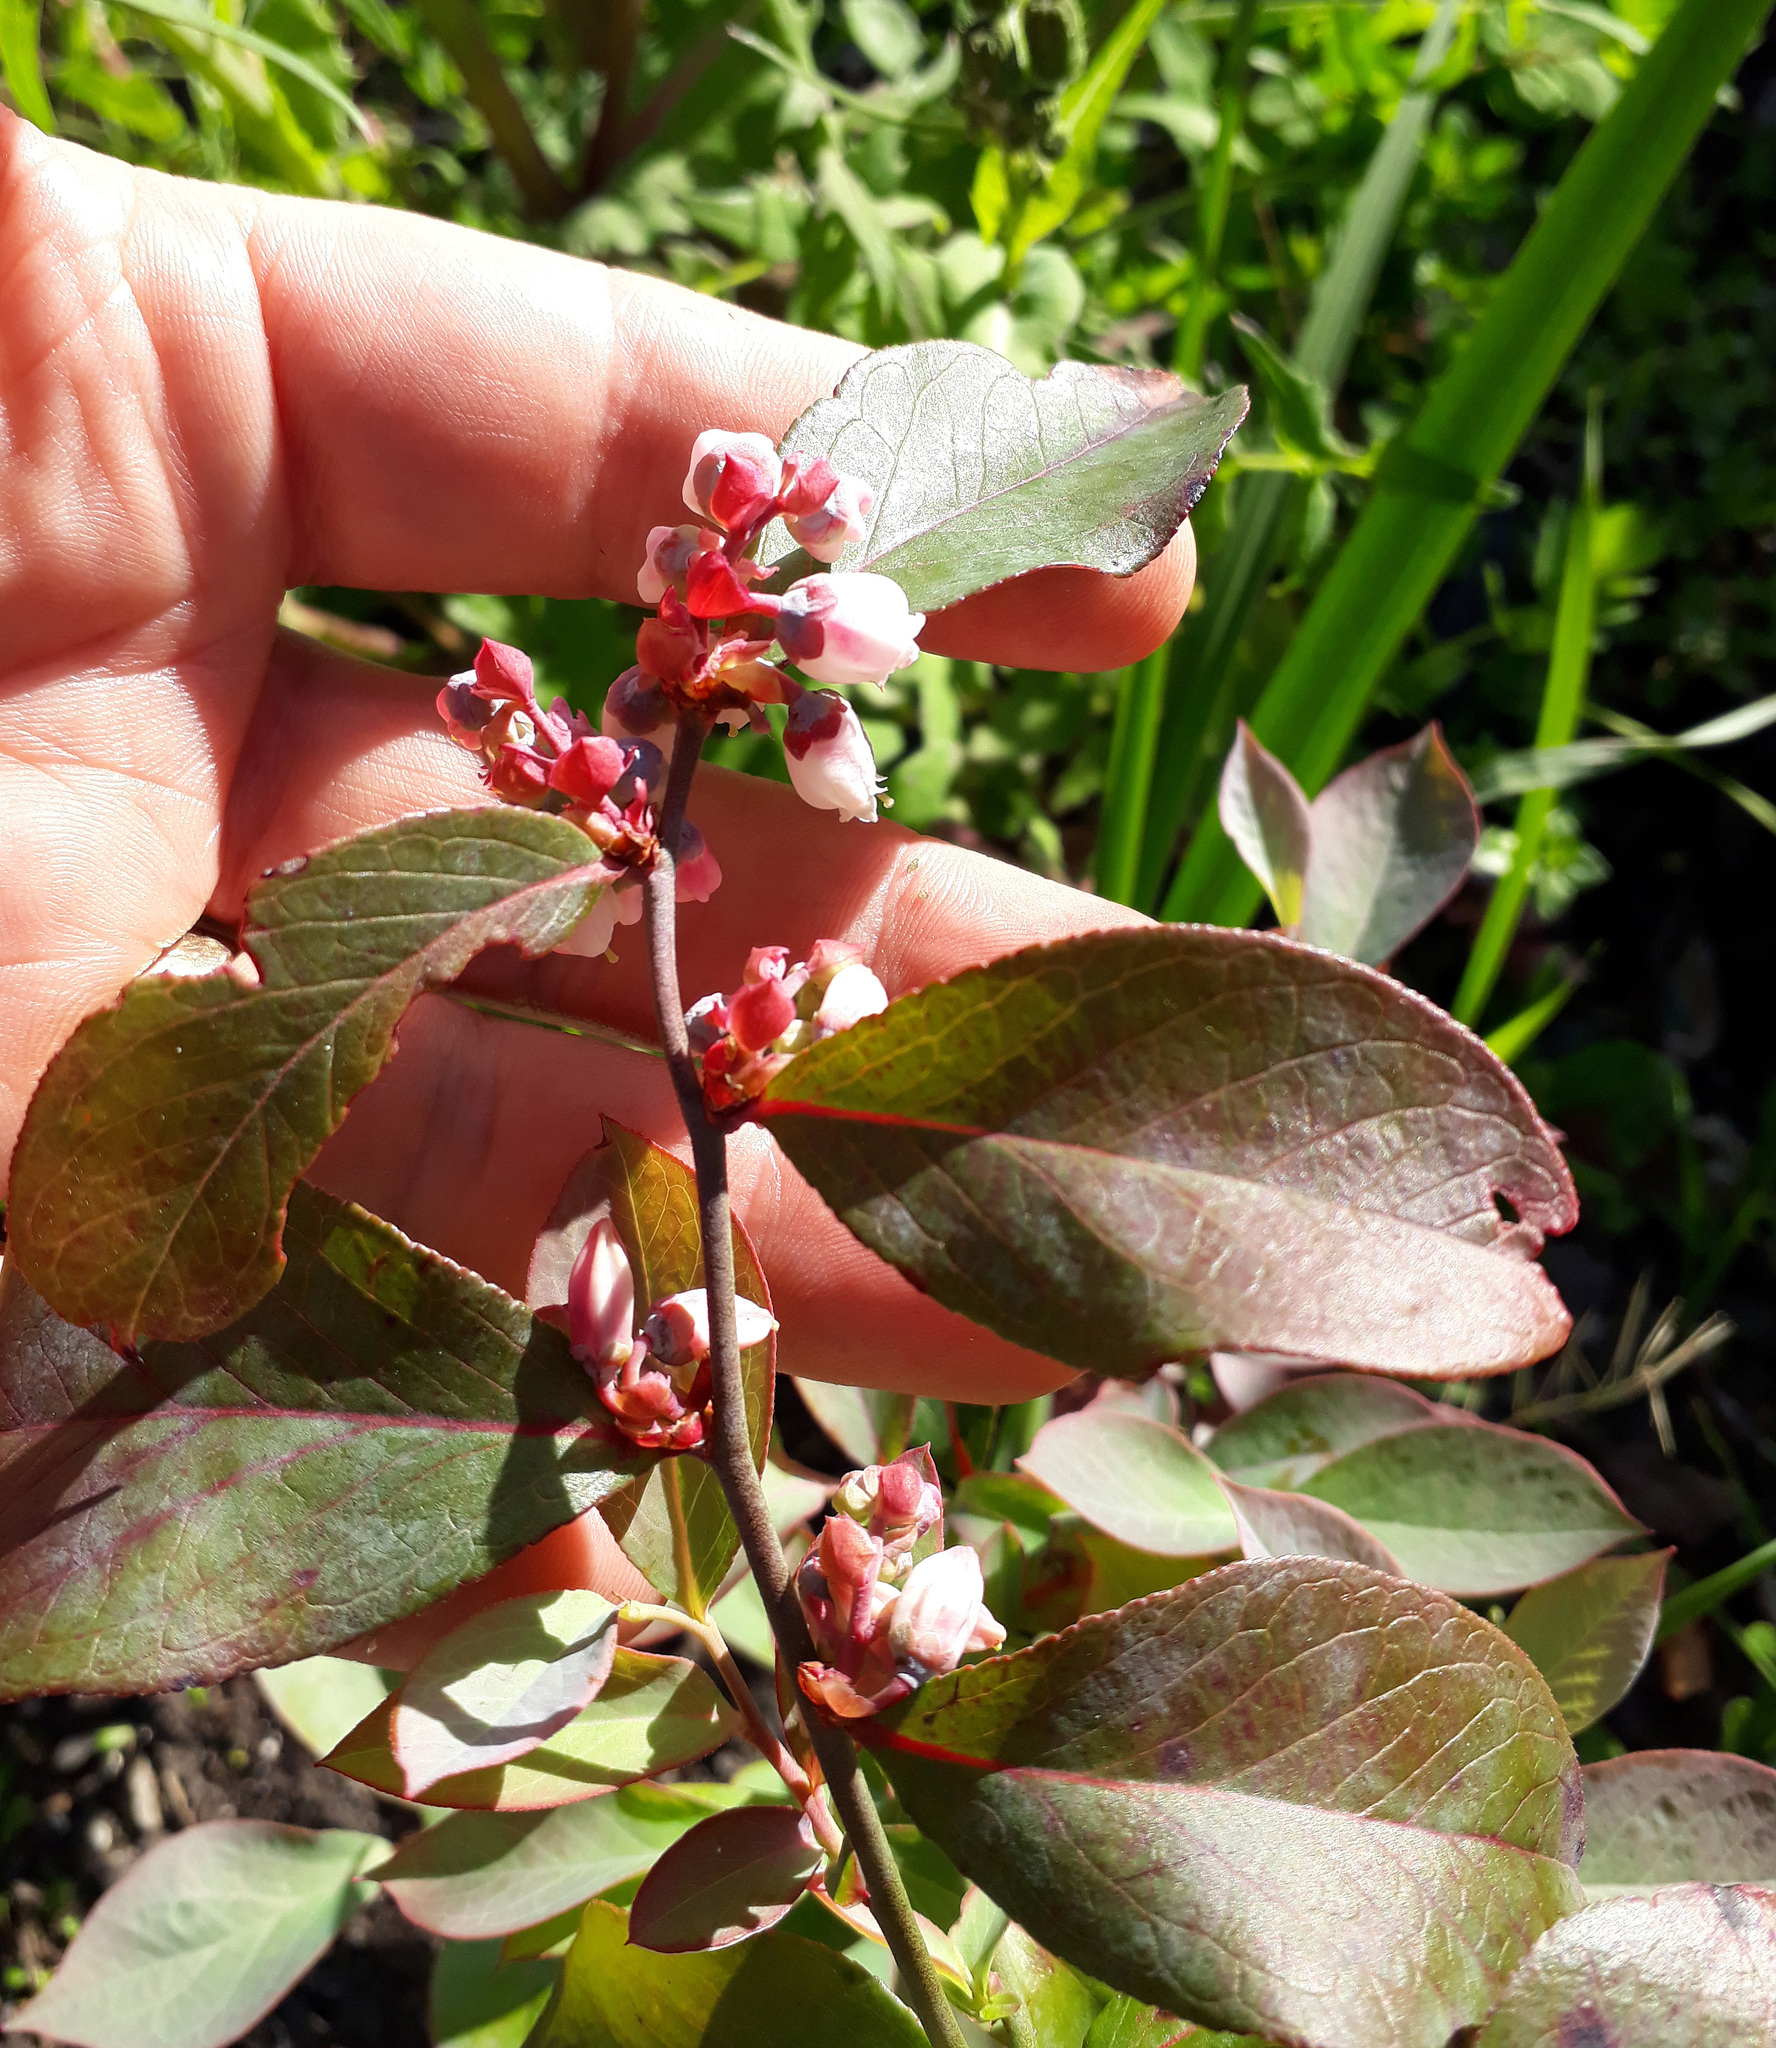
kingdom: Plantae
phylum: Tracheophyta
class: Magnoliopsida
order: Ericales
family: Ericaceae
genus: Vaccinium
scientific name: Vaccinium corymbosum
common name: Blueberry
